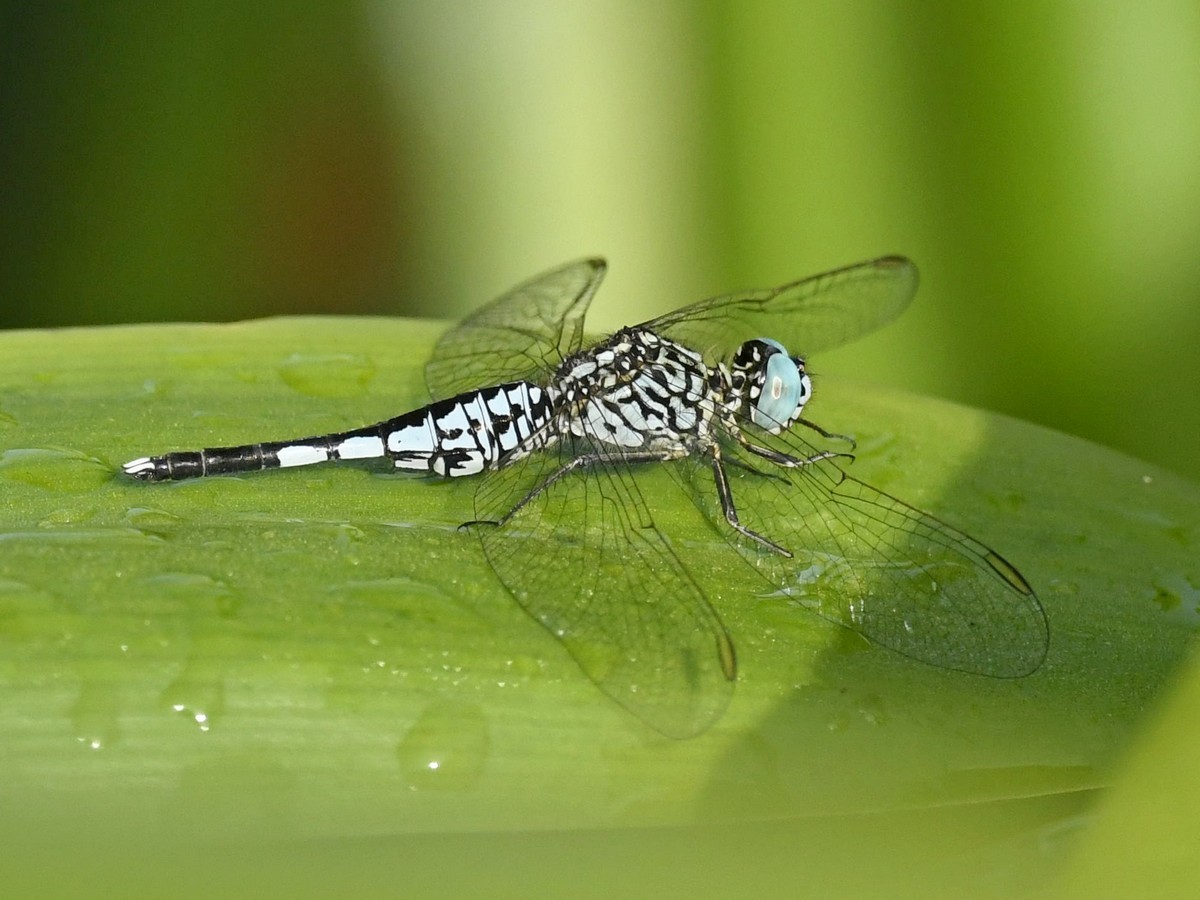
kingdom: Animalia
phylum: Arthropoda
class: Insecta
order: Odonata
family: Libellulidae
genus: Acisoma
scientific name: Acisoma panorpoides
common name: Asian pintail
